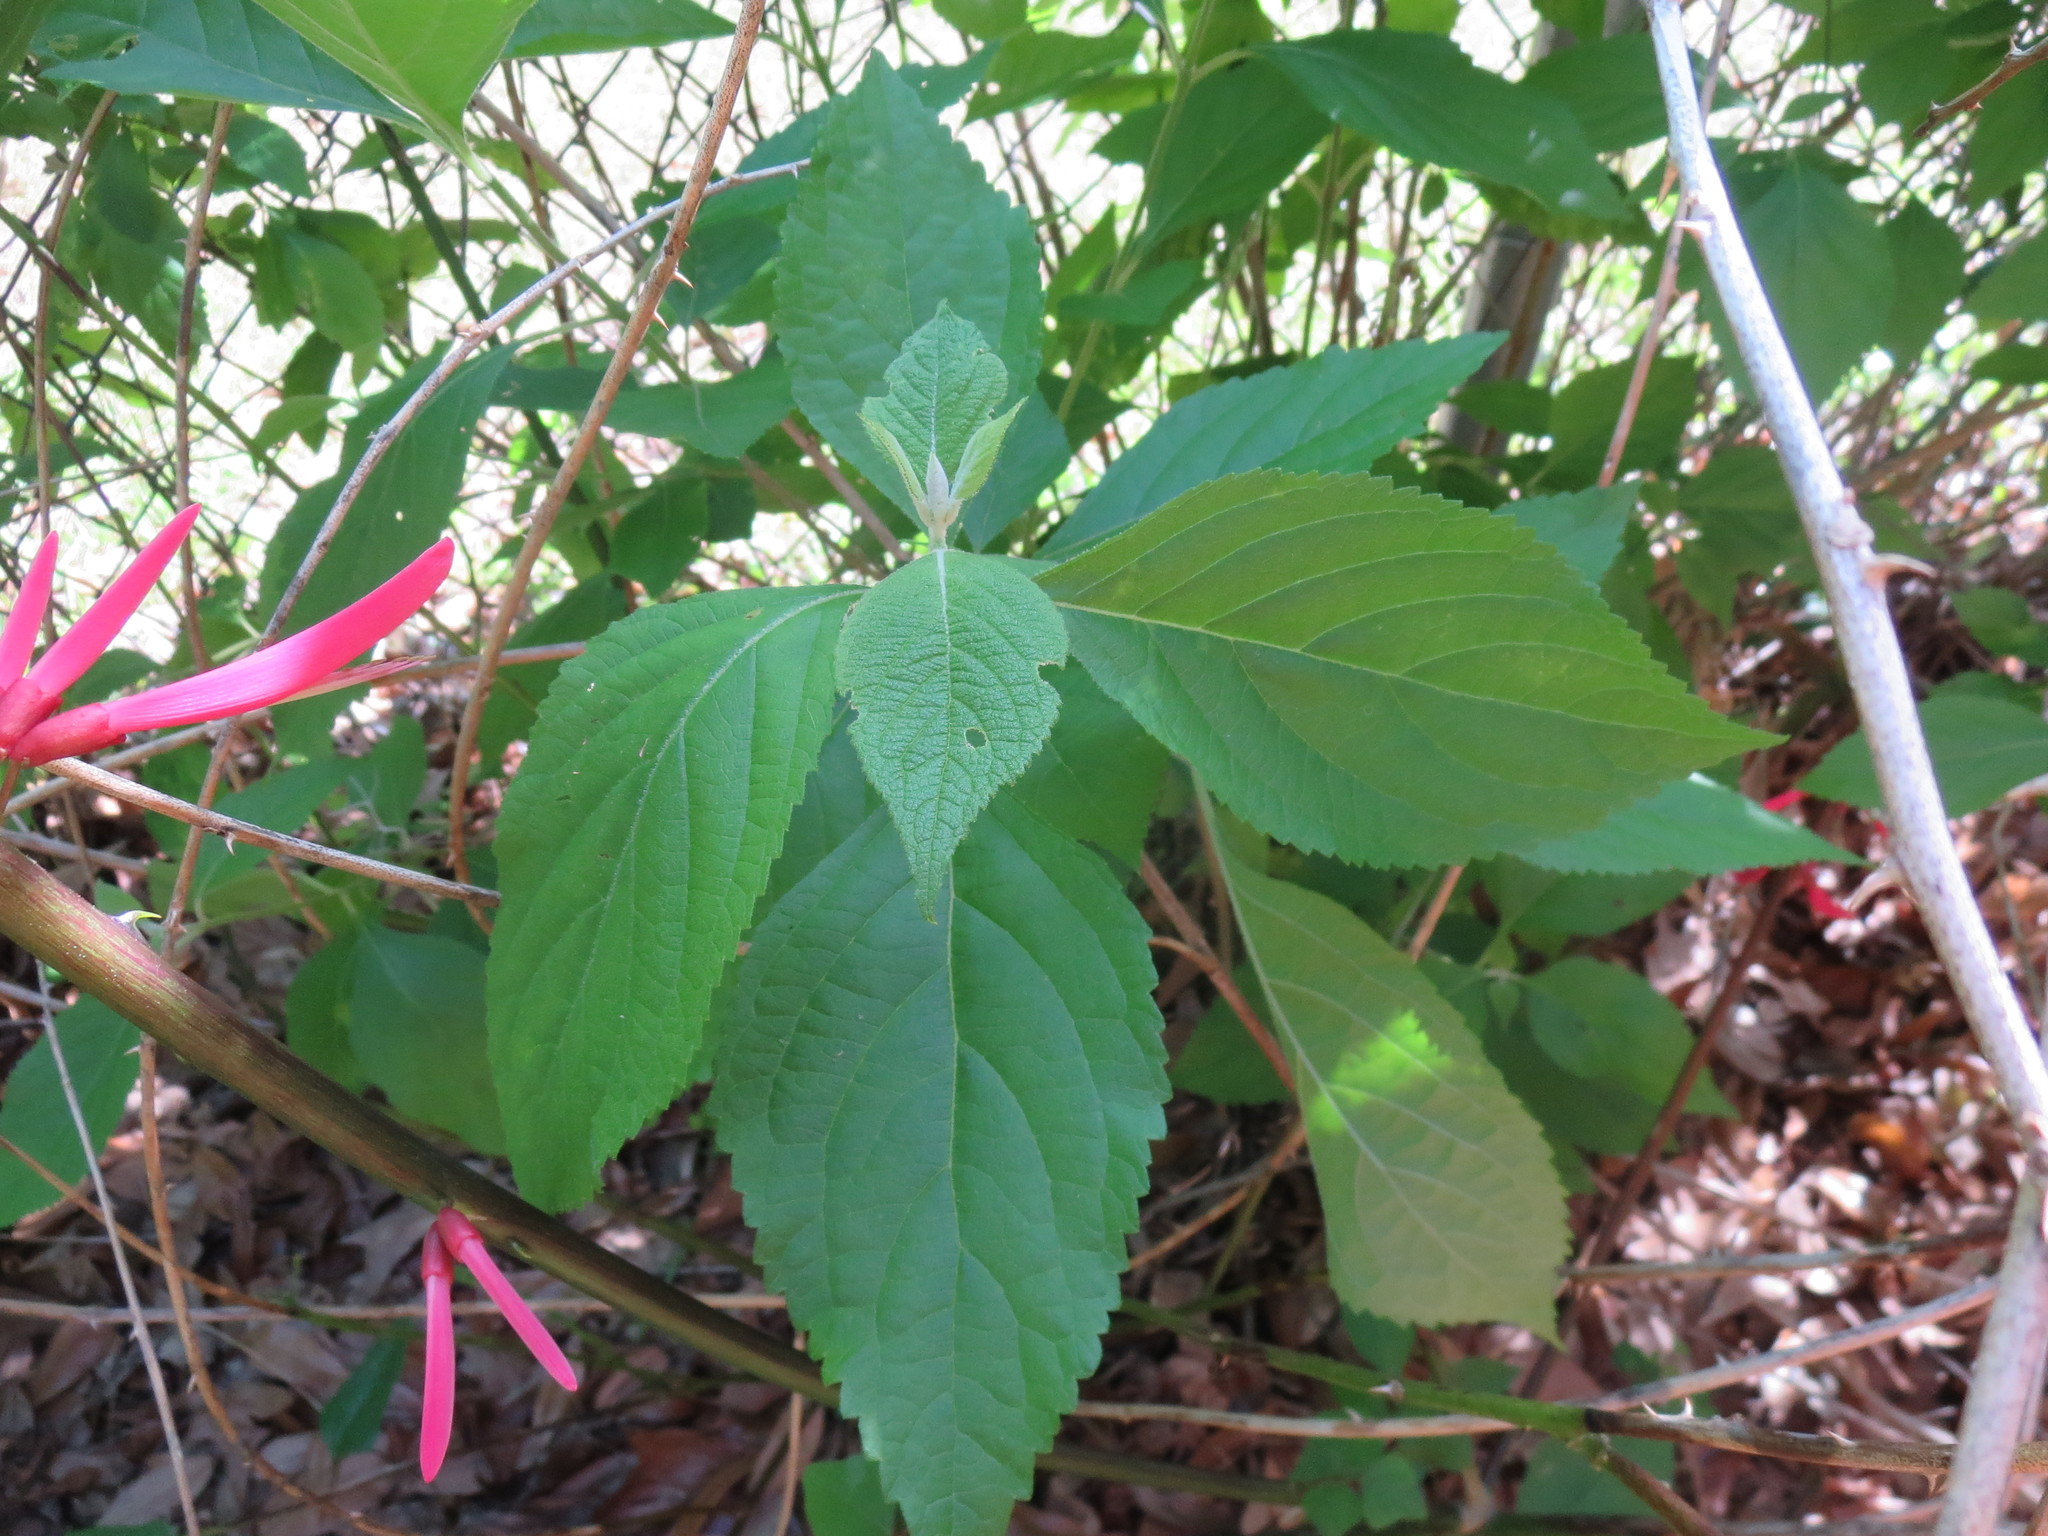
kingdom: Plantae
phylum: Tracheophyta
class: Magnoliopsida
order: Lamiales
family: Lamiaceae
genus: Callicarpa
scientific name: Callicarpa americana
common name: American beautyberry
